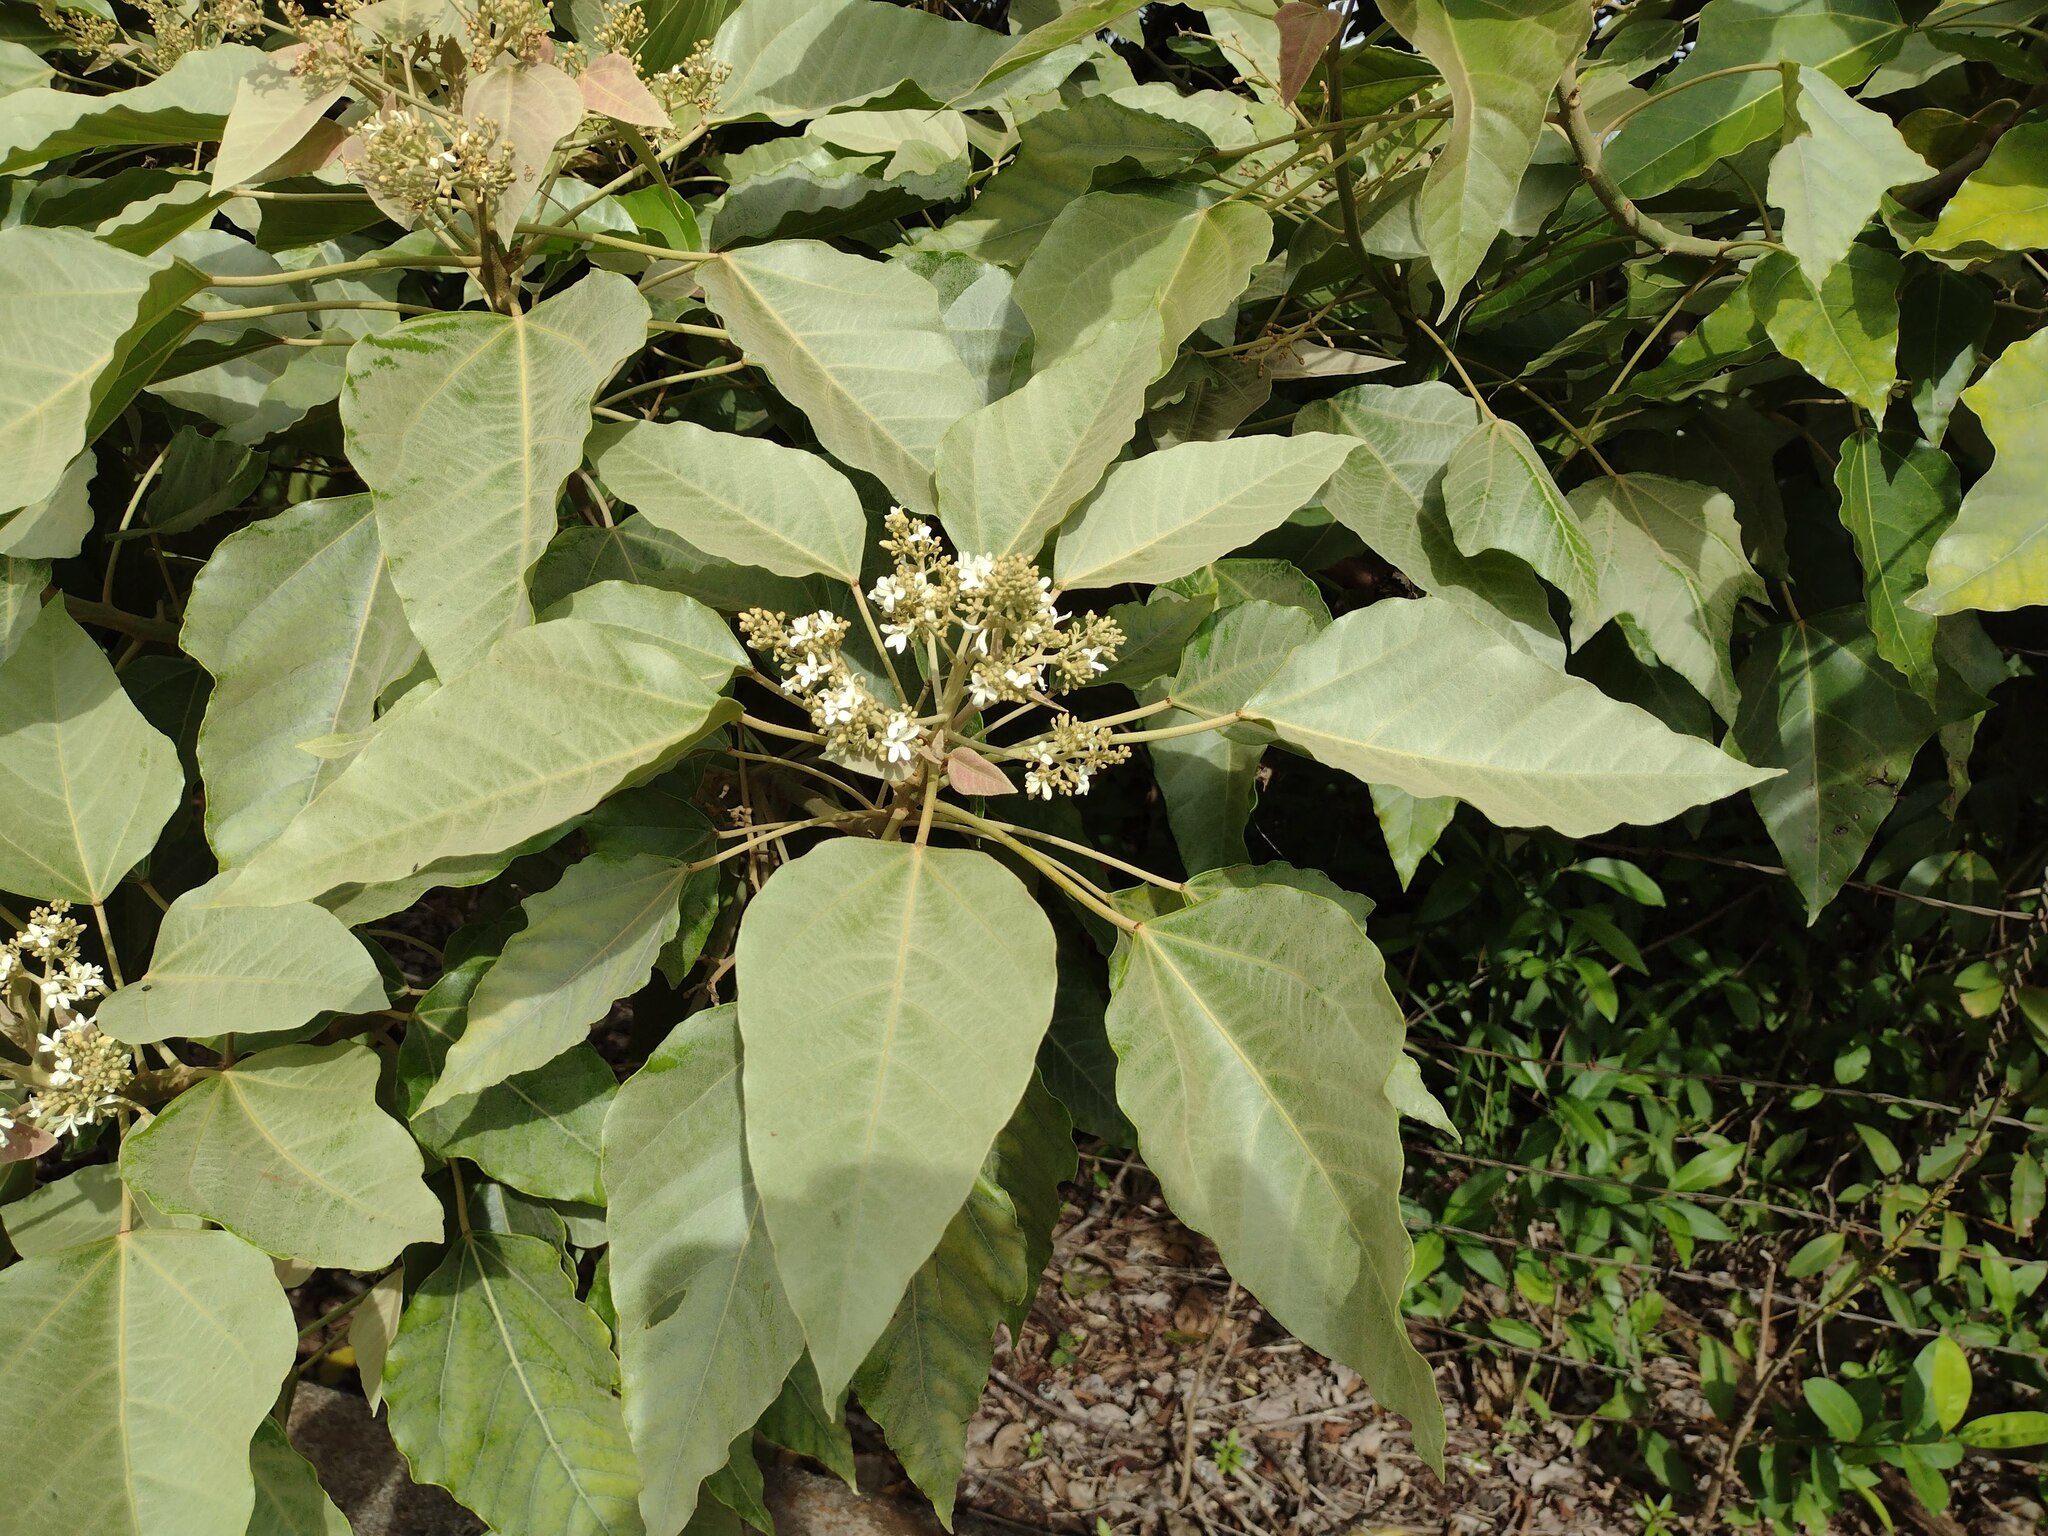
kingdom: Plantae
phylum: Tracheophyta
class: Magnoliopsida
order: Malpighiales
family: Euphorbiaceae
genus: Aleurites
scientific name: Aleurites moluccanus
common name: Candlenut tree
